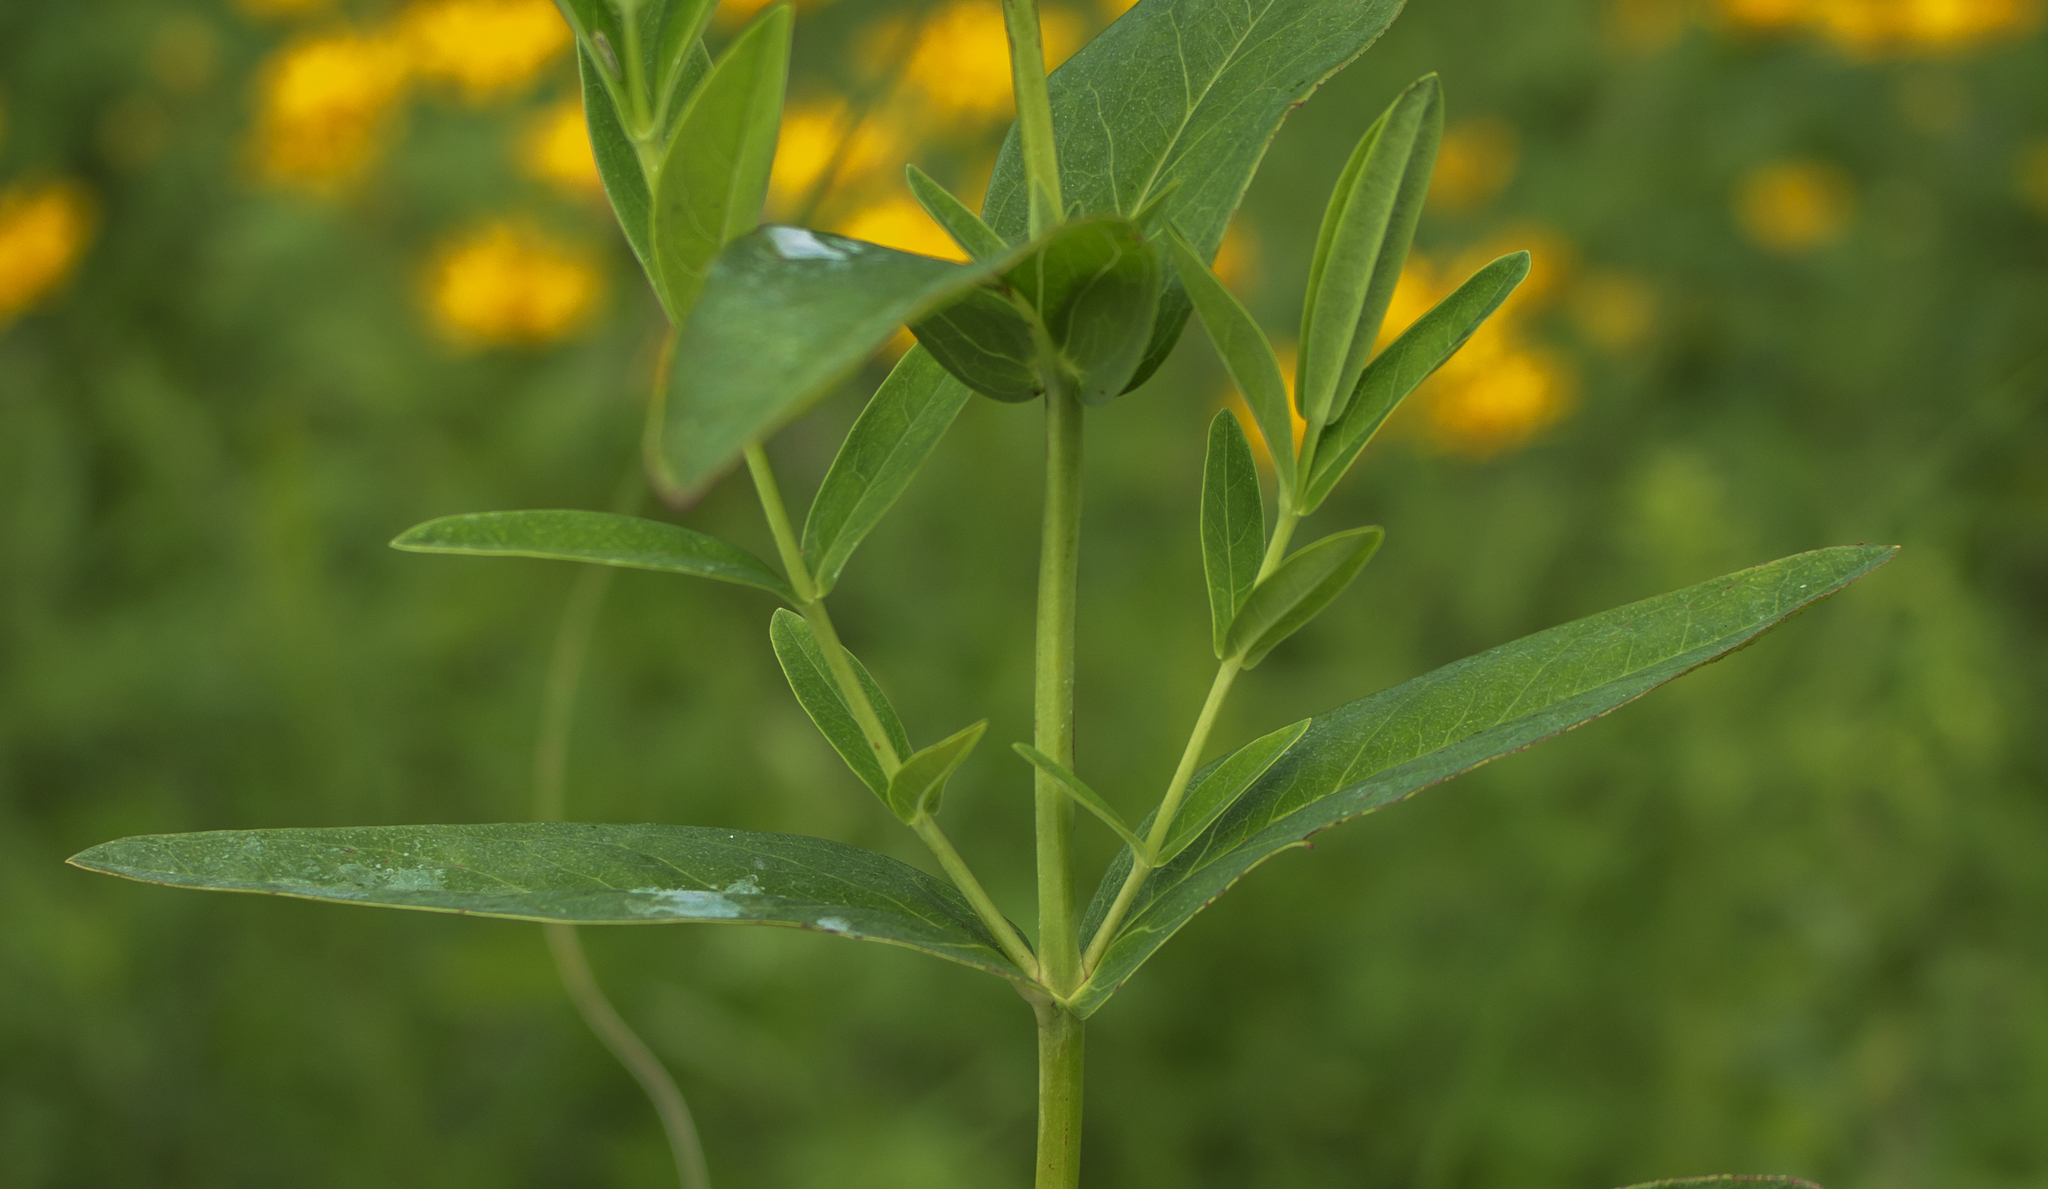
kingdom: Plantae
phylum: Tracheophyta
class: Magnoliopsida
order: Malpighiales
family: Hypericaceae
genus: Hypericum
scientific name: Hypericum ascyron
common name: Giant st. john's-wort
